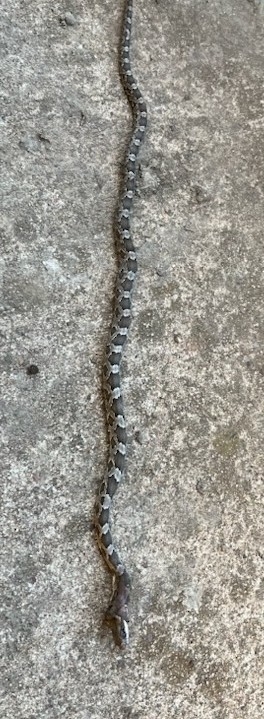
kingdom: Animalia
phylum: Chordata
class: Squamata
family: Colubridae
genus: Pantherophis
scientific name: Pantherophis obsoletus
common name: Black rat snake
